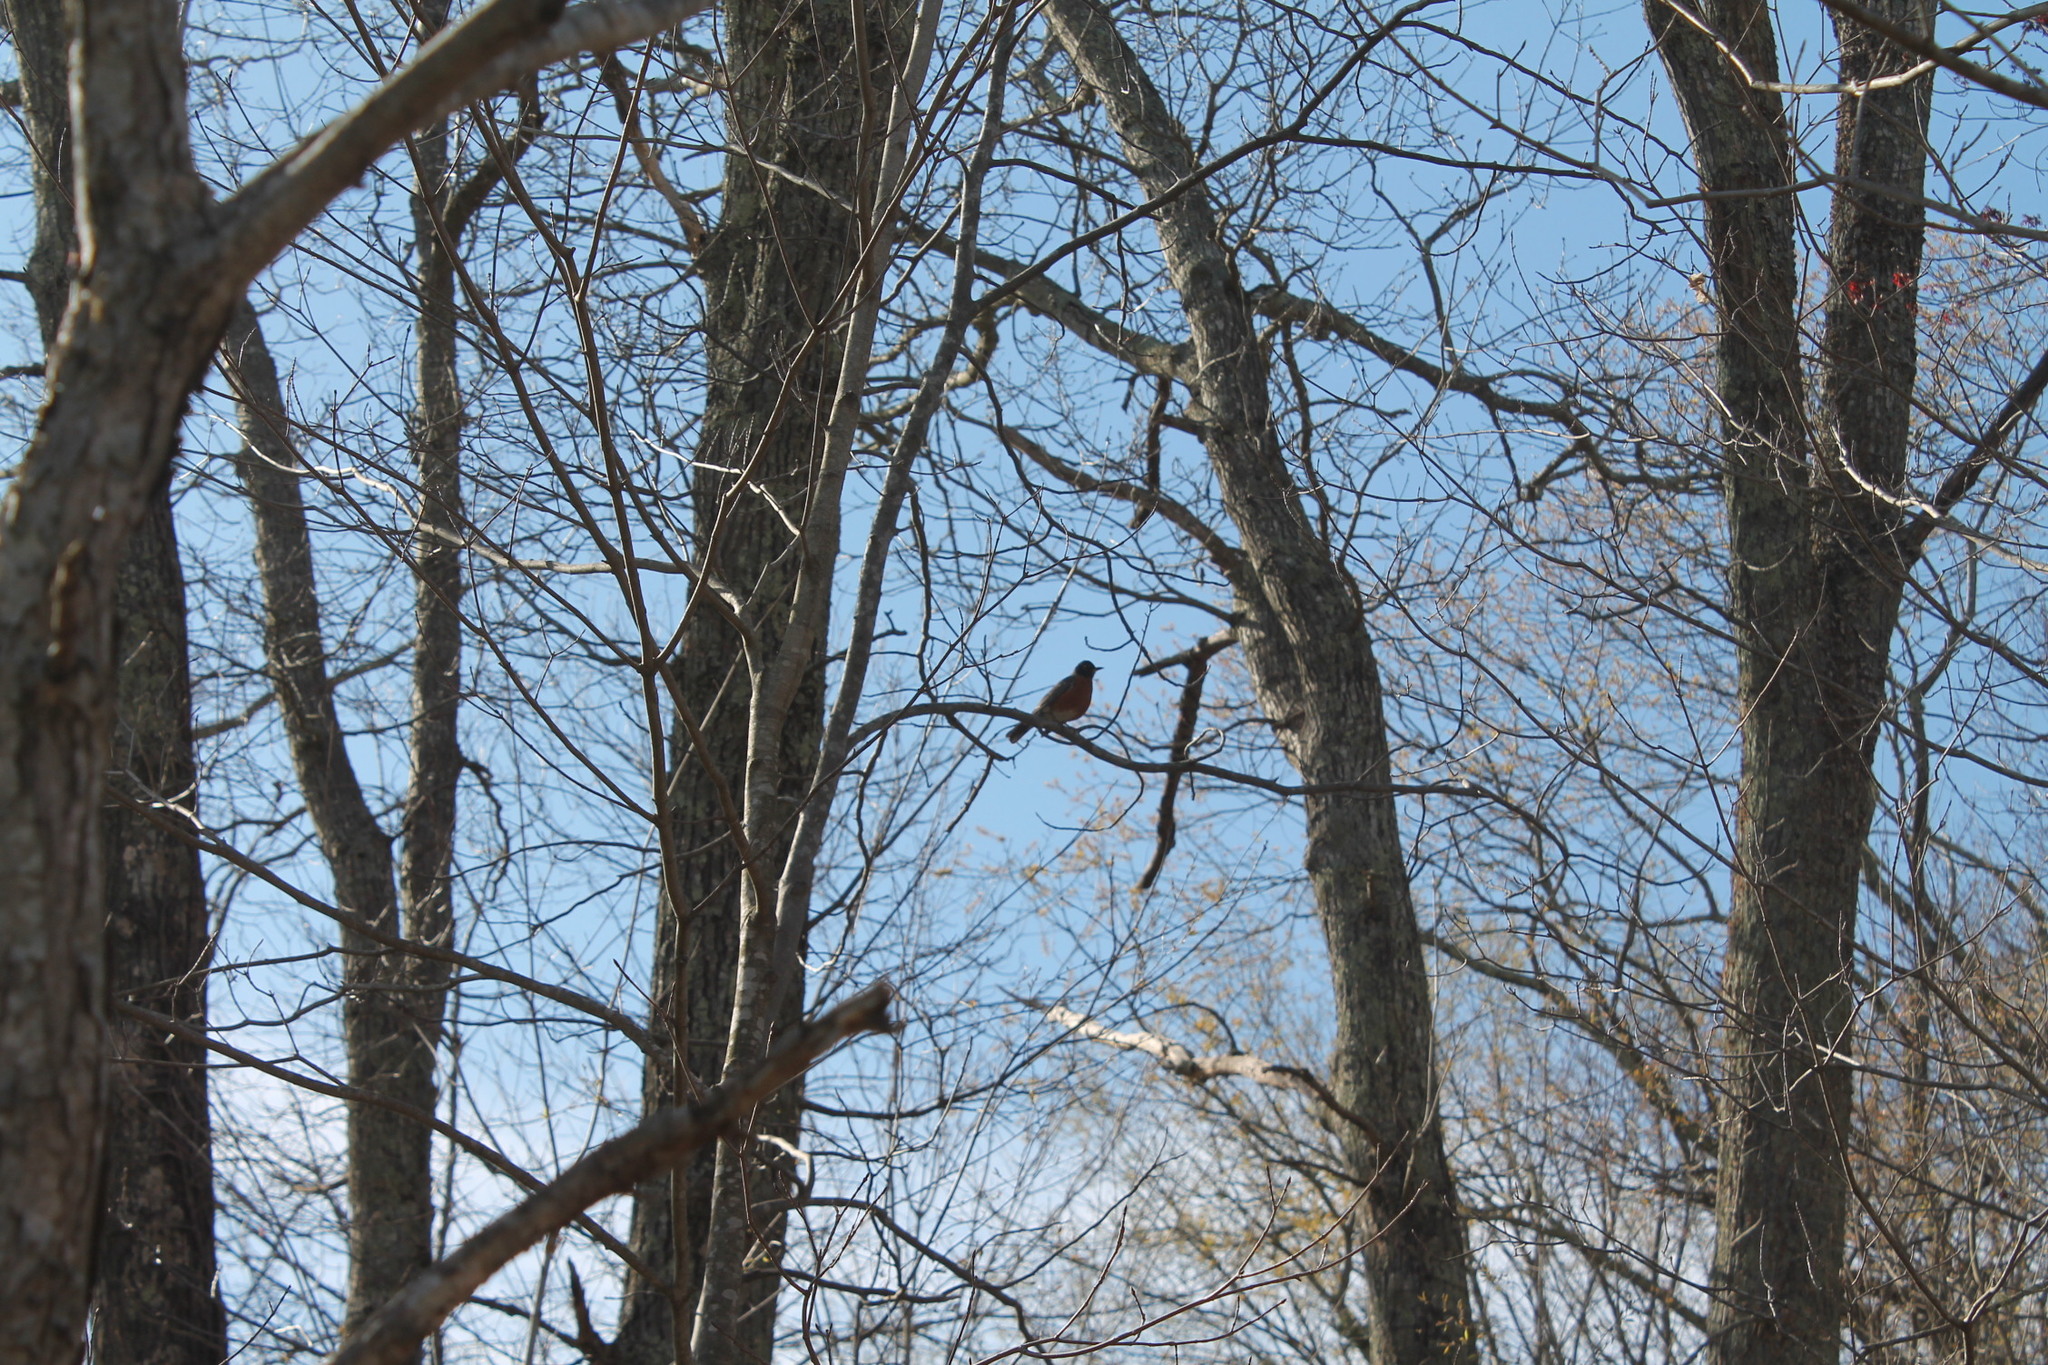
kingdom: Animalia
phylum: Chordata
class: Aves
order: Passeriformes
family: Turdidae
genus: Turdus
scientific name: Turdus migratorius
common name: American robin
